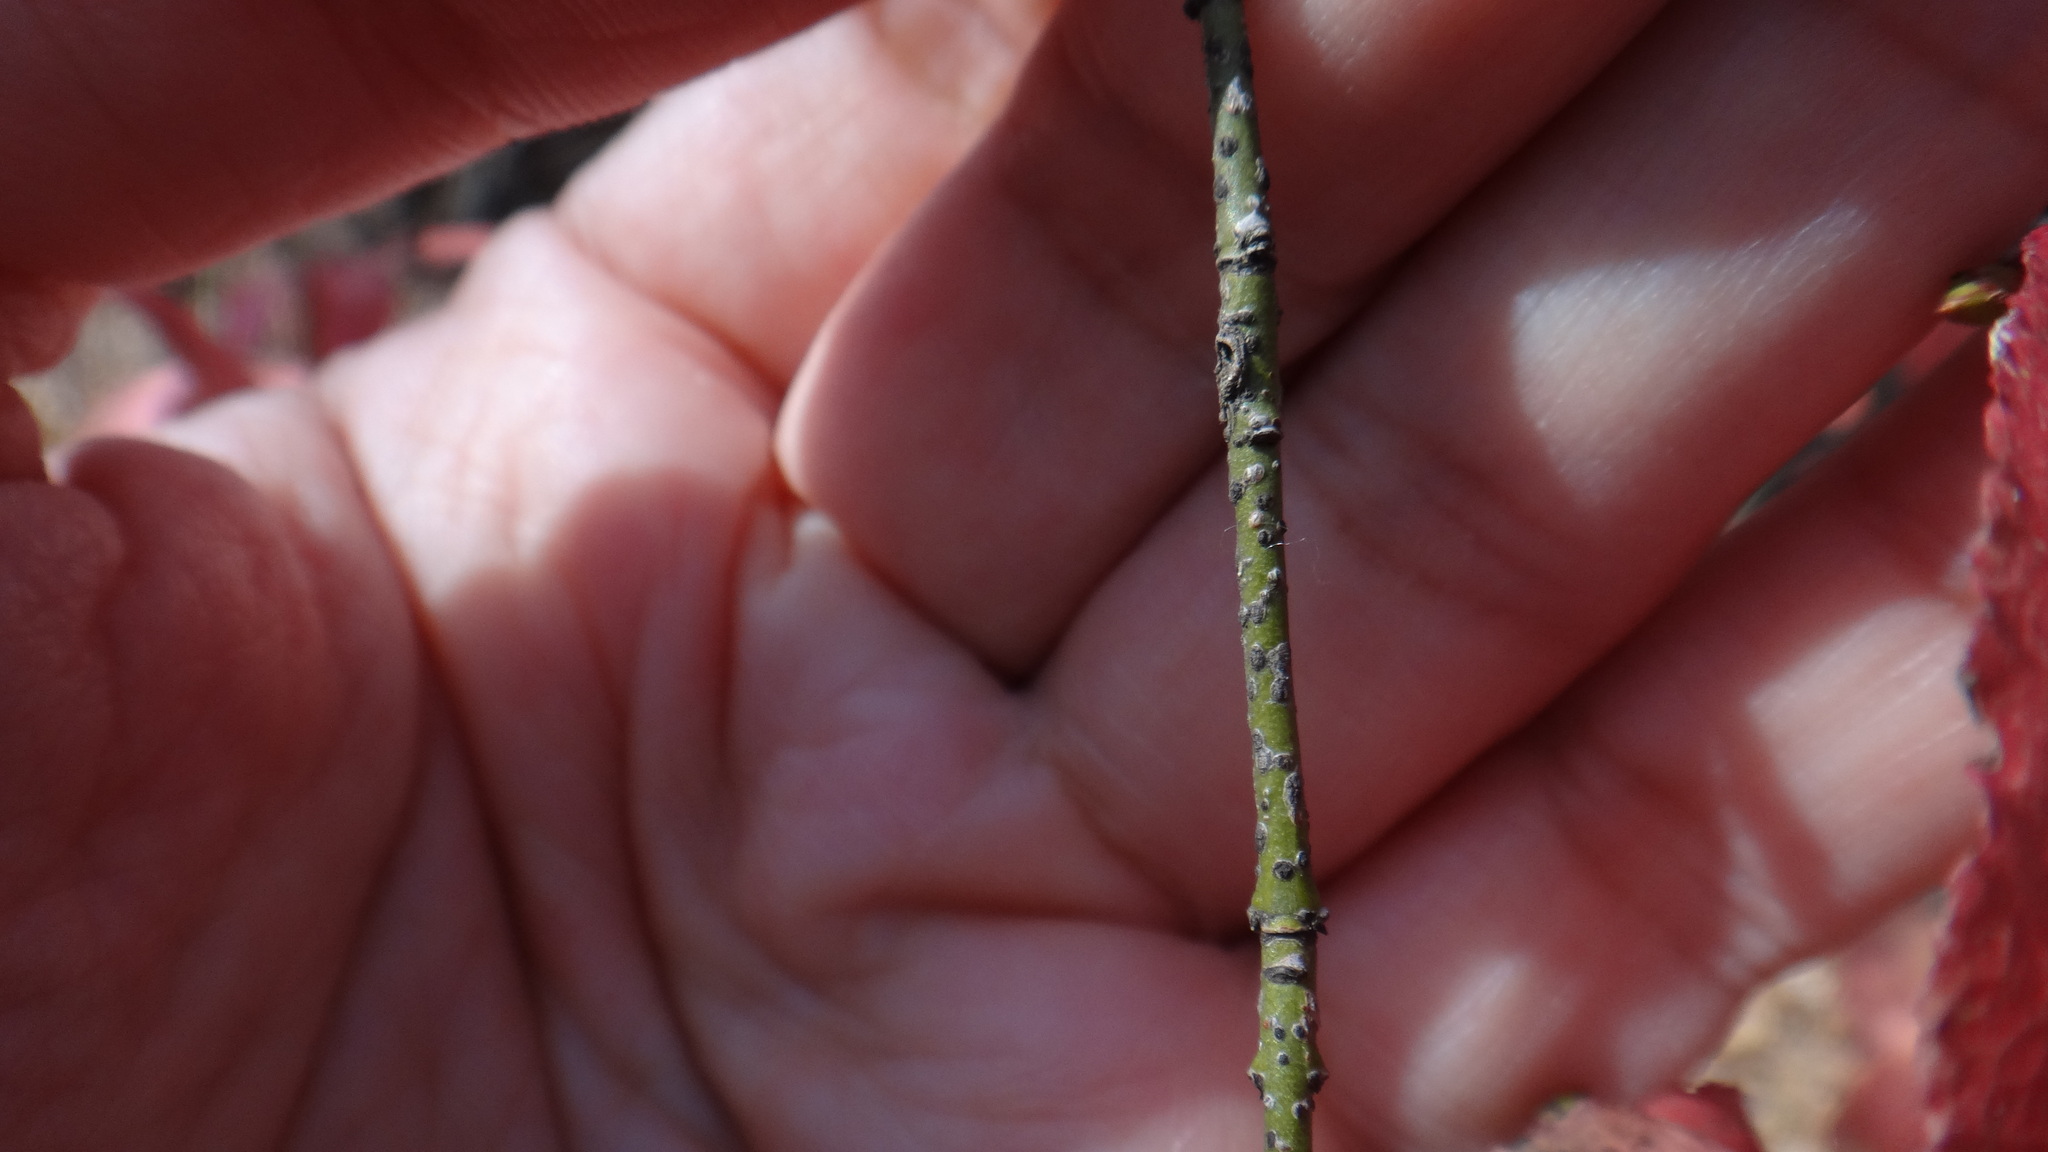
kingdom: Plantae
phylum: Tracheophyta
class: Magnoliopsida
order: Celastrales
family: Celastraceae
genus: Euonymus
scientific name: Euonymus verrucosus
